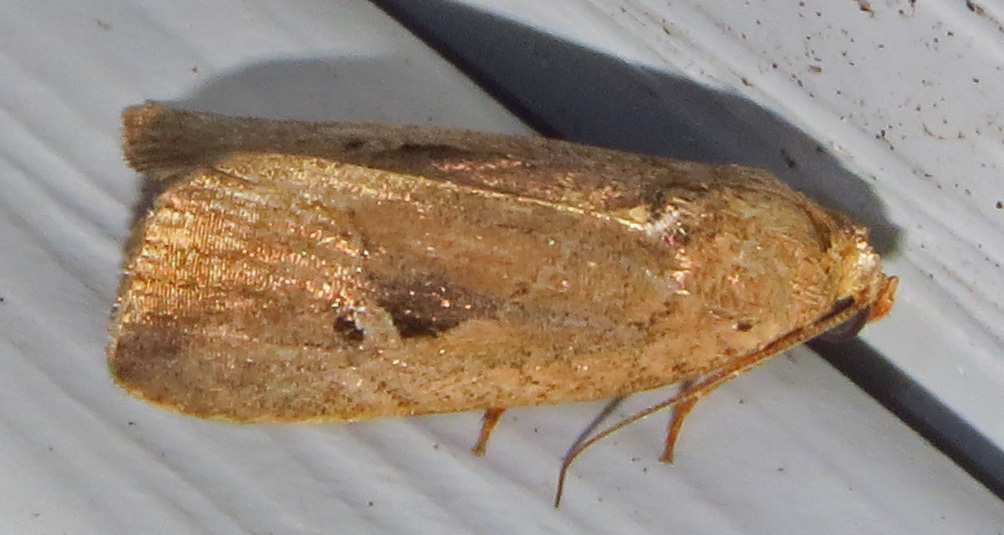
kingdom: Animalia
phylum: Arthropoda
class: Insecta
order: Lepidoptera
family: Noctuidae
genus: Elaphria
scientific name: Elaphria nucicolora
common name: Sugarcane midget moth
